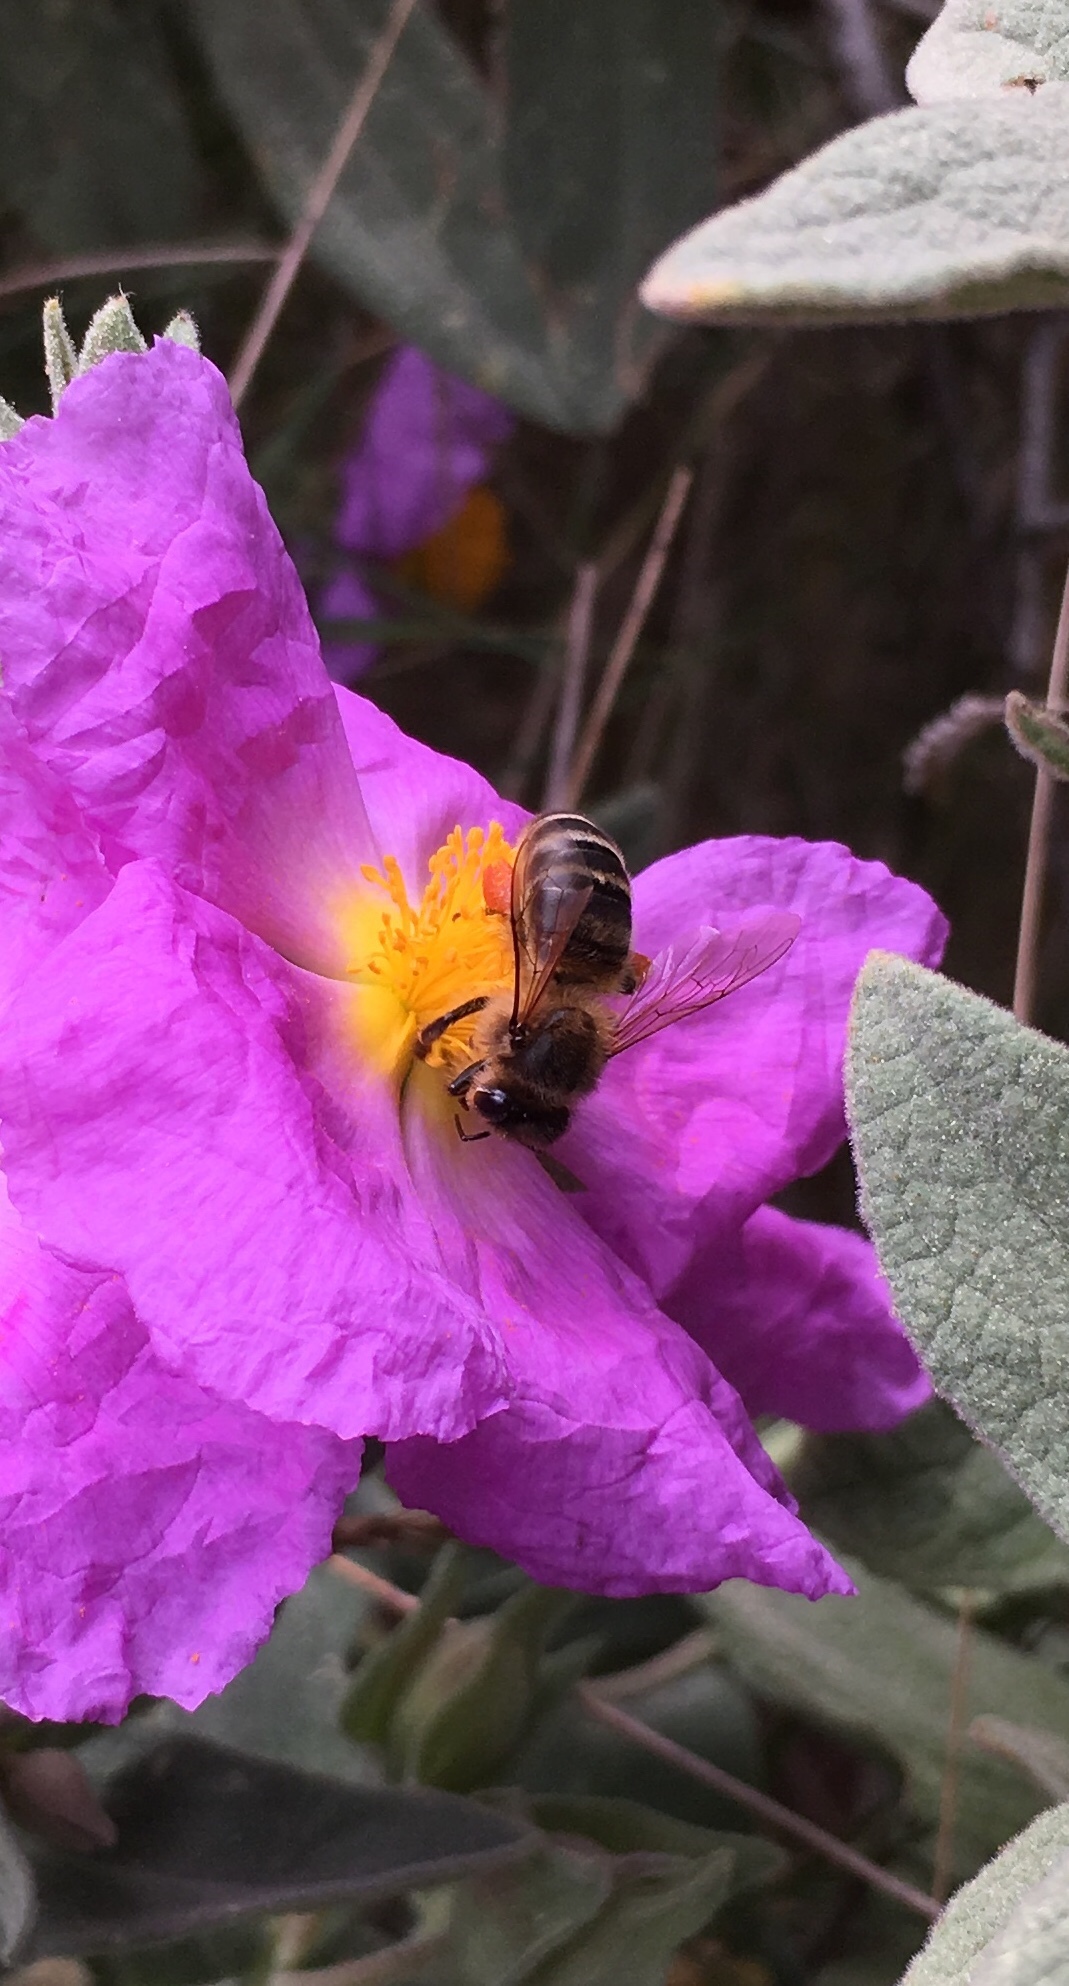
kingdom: Animalia
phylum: Arthropoda
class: Insecta
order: Hymenoptera
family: Apidae
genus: Apis
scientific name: Apis mellifera
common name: Honey bee
